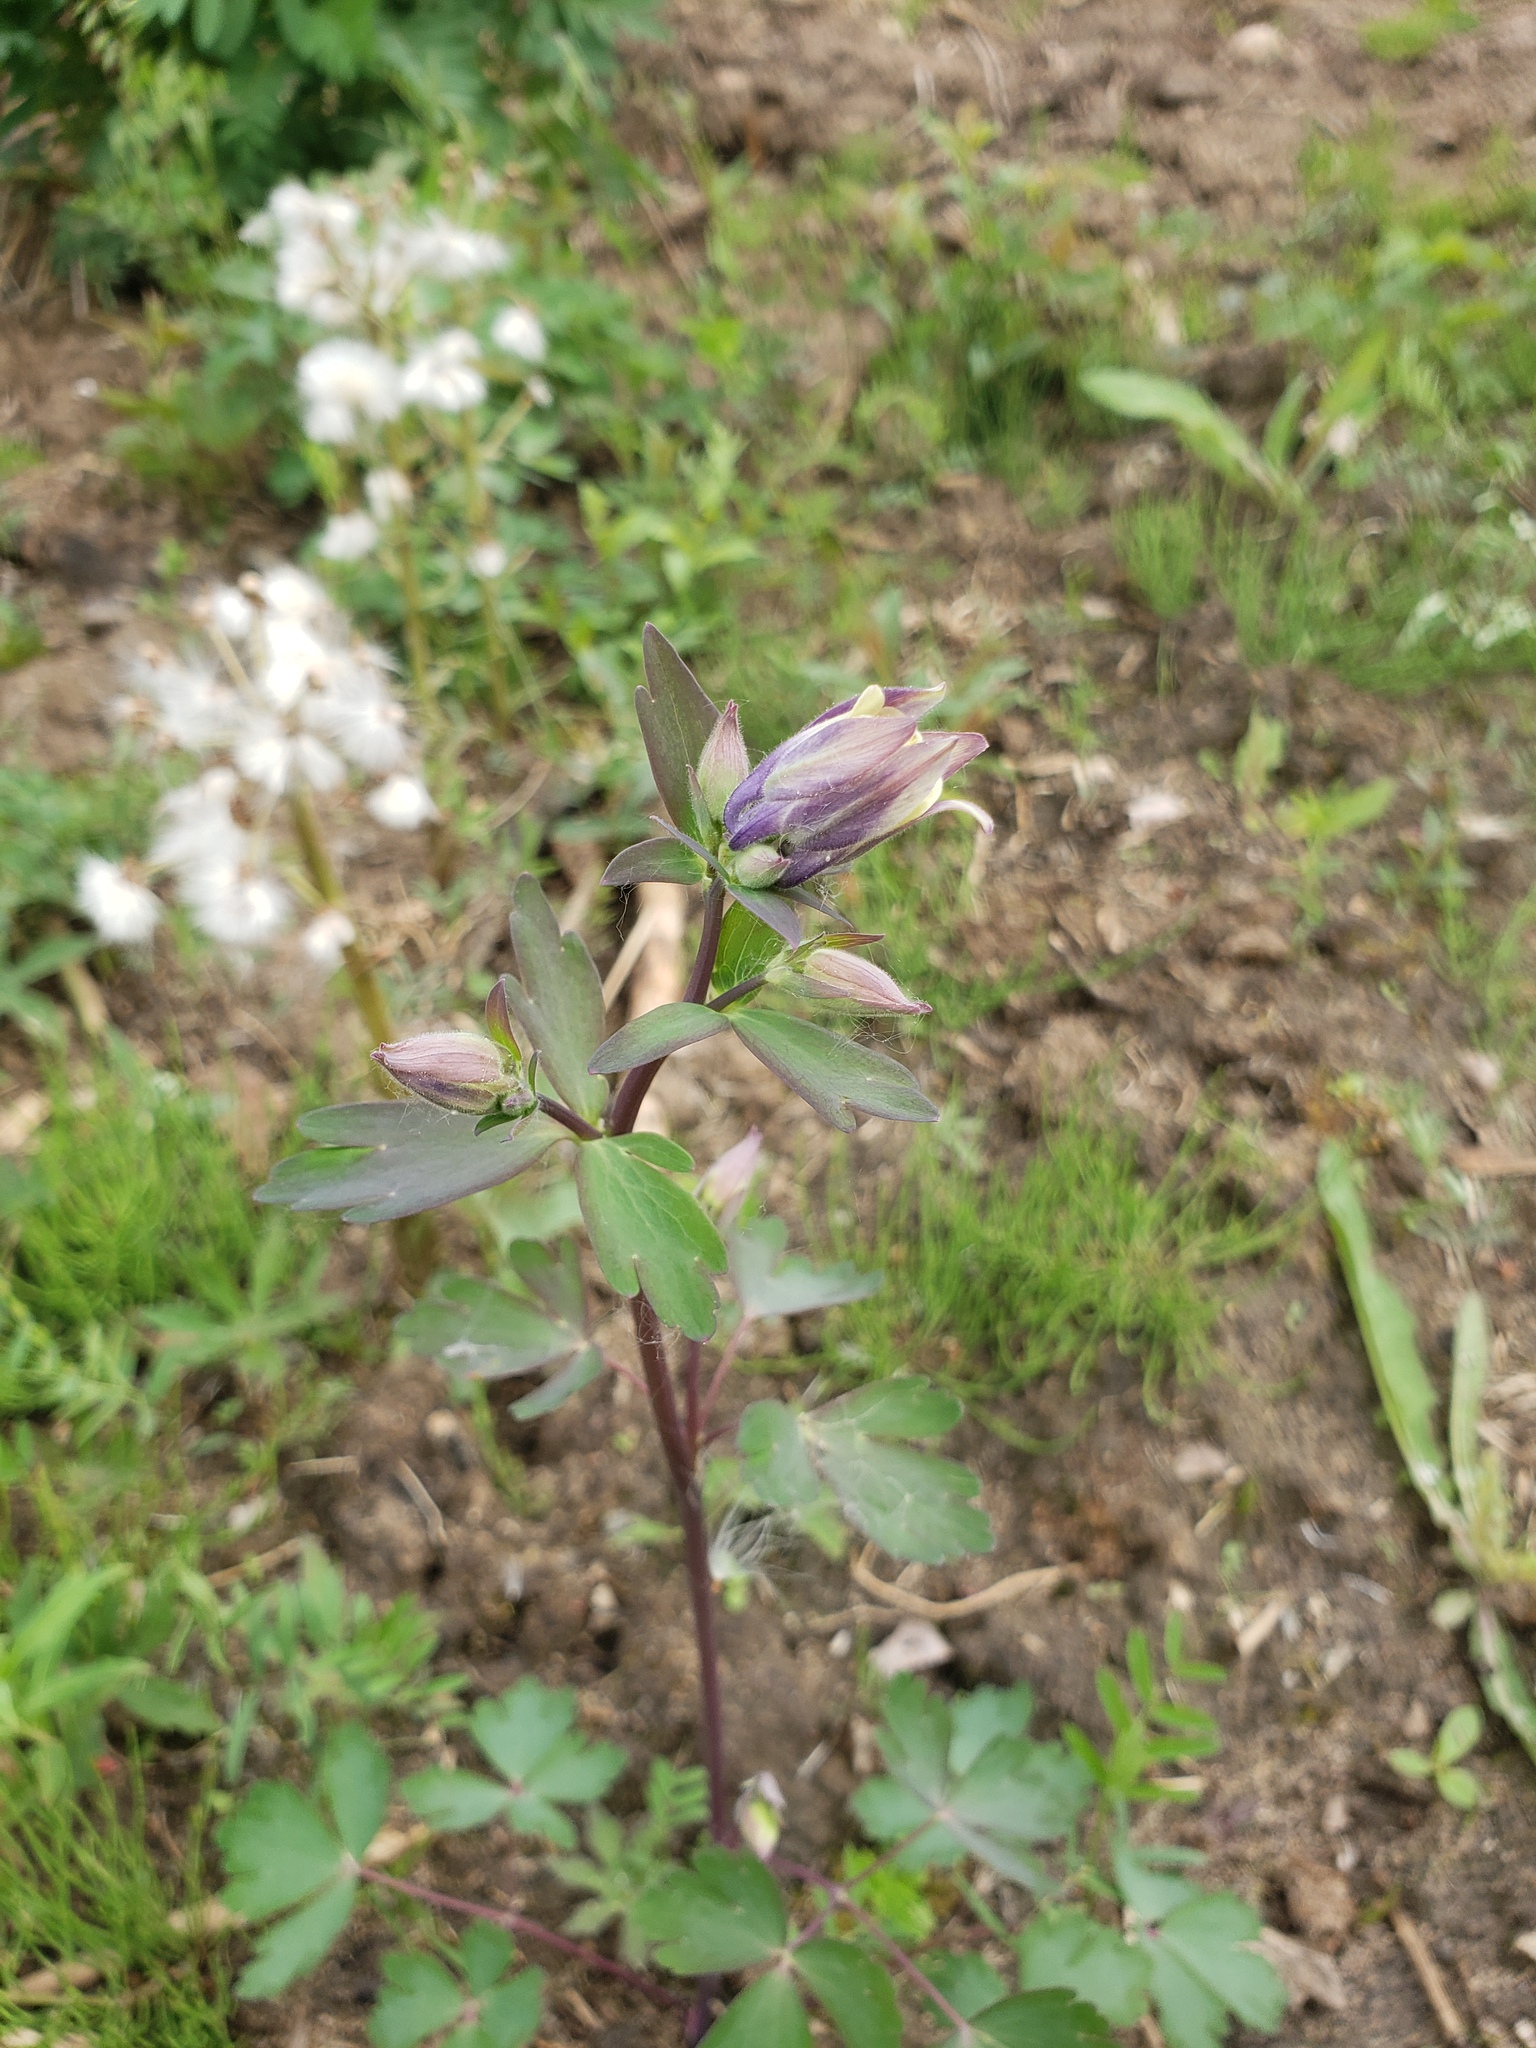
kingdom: Plantae
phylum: Tracheophyta
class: Magnoliopsida
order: Ranunculales
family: Ranunculaceae
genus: Aquilegia
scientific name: Aquilegia brevistyla
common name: Yukon columbine
